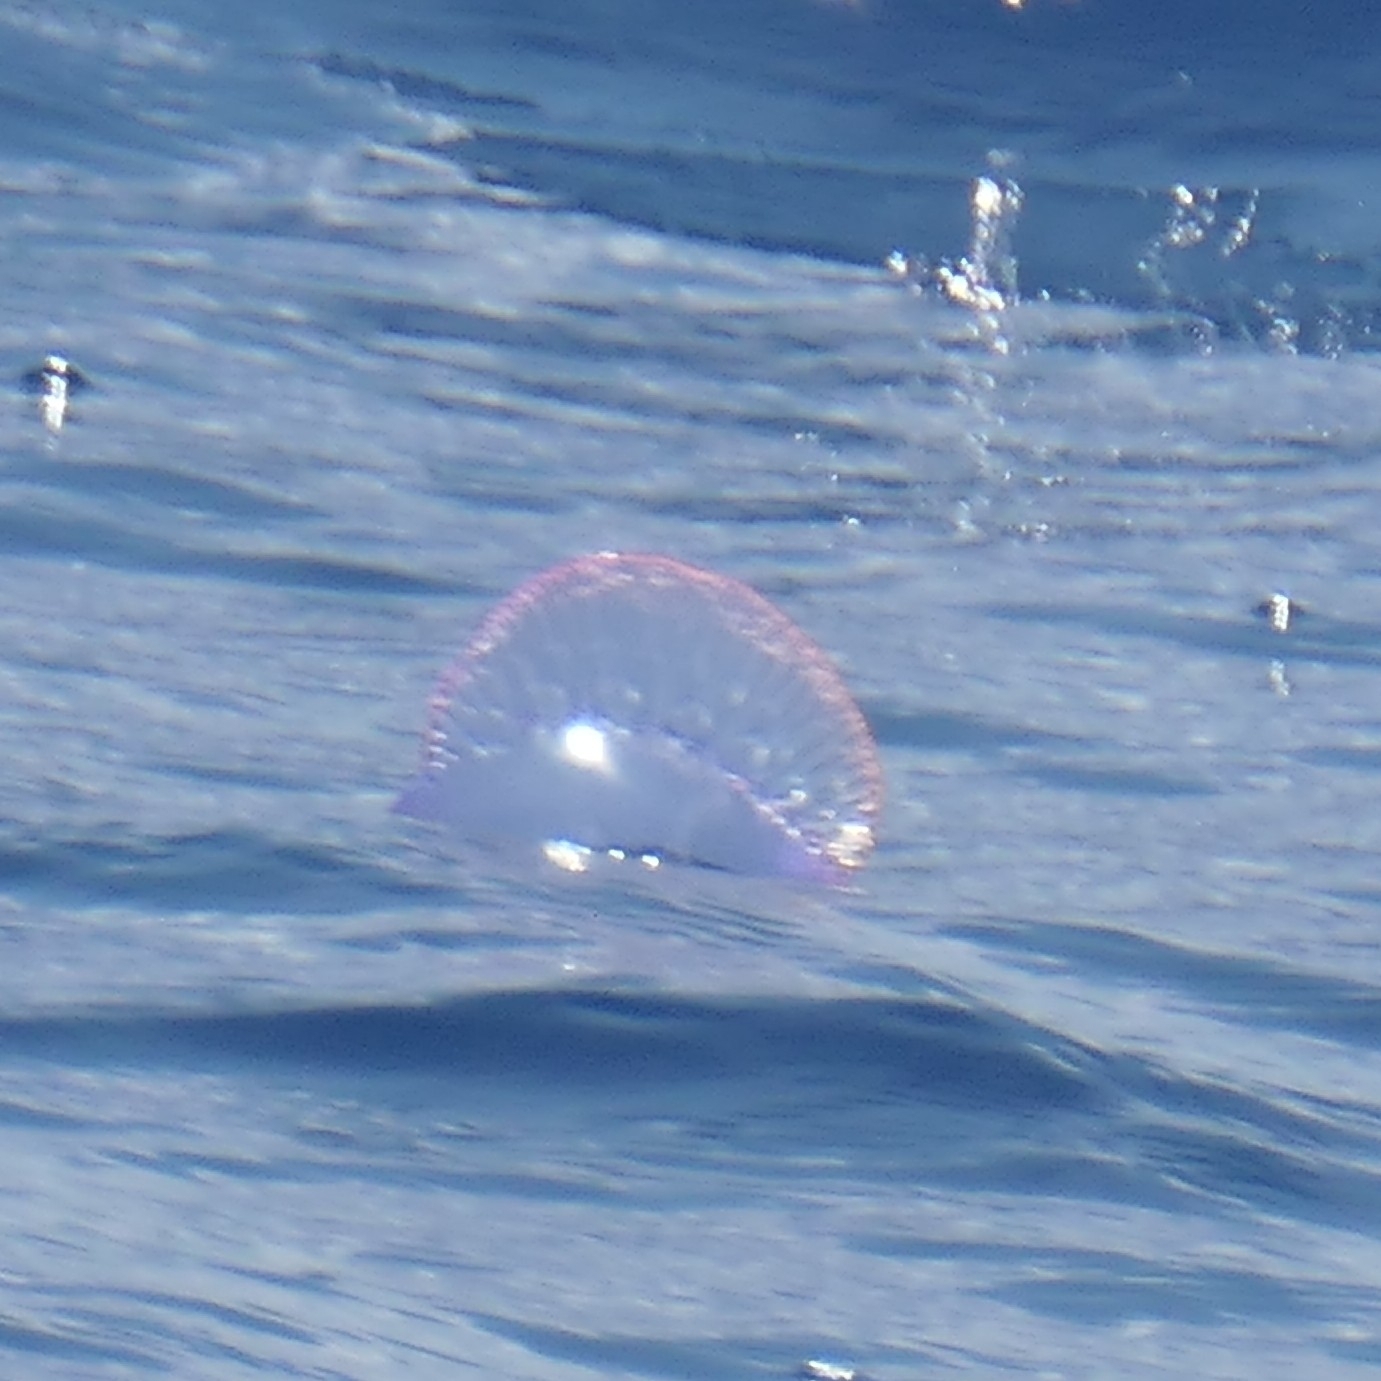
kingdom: Animalia
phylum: Cnidaria
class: Hydrozoa
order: Siphonophorae
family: Physaliidae
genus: Physalia
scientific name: Physalia physalis
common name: Portuguese man-of-war
